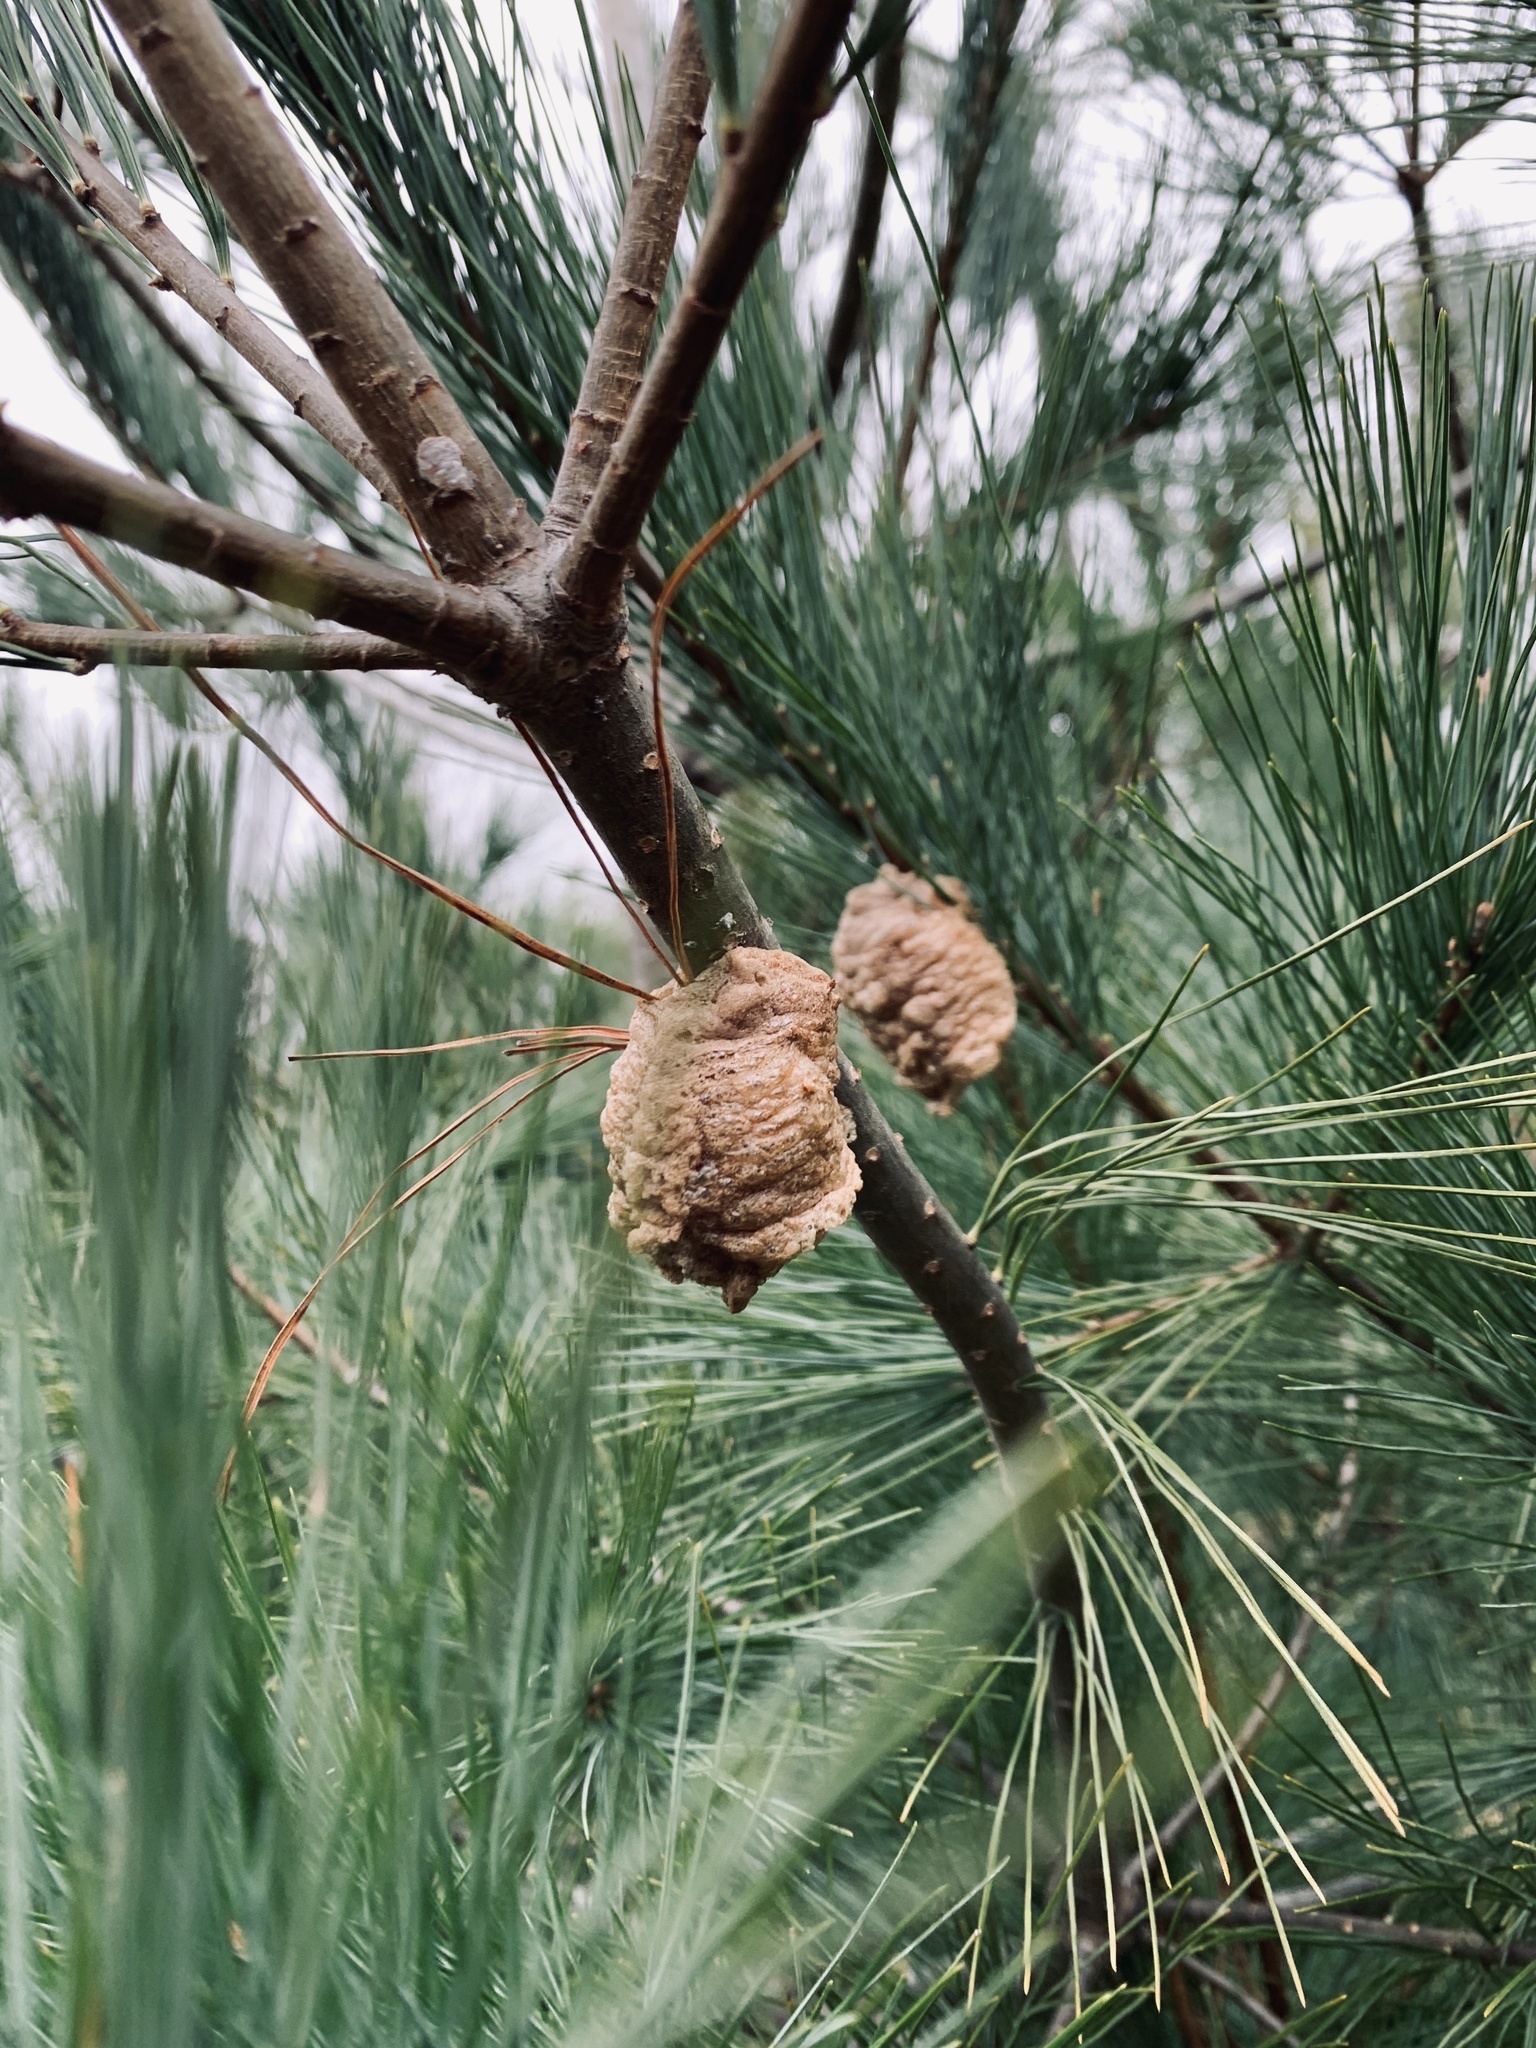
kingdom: Animalia
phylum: Arthropoda
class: Insecta
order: Mantodea
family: Mantidae
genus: Tenodera
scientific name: Tenodera sinensis
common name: Chinese mantis
